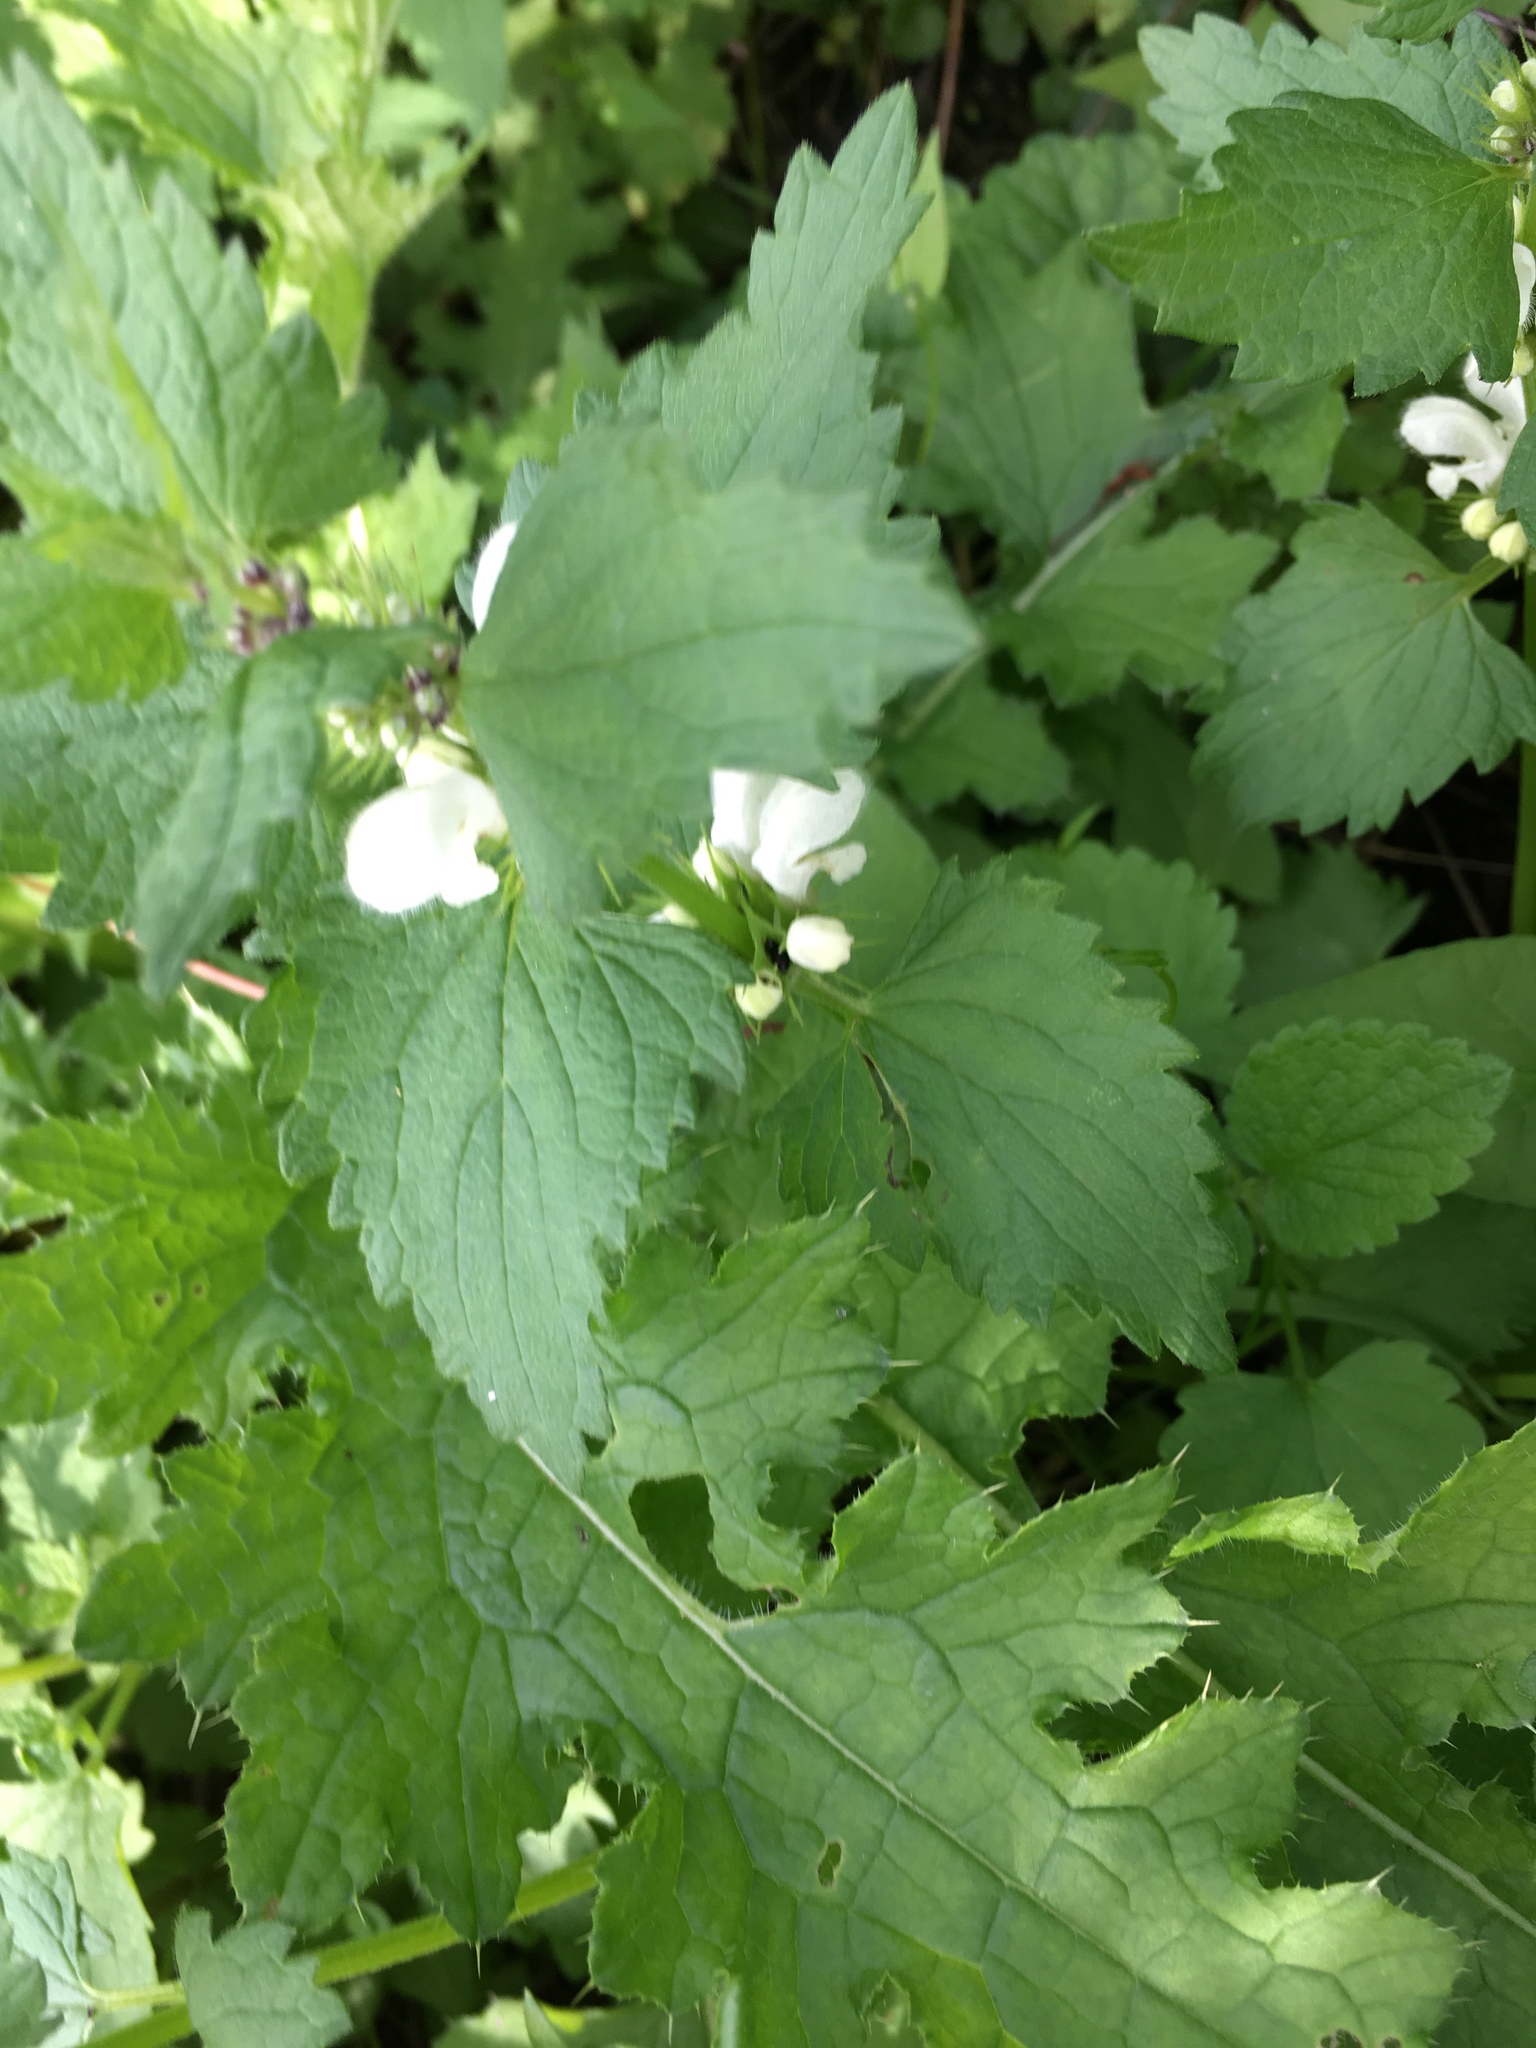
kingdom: Plantae
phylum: Tracheophyta
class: Magnoliopsida
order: Lamiales
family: Lamiaceae
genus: Lamium
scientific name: Lamium album
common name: White dead-nettle
